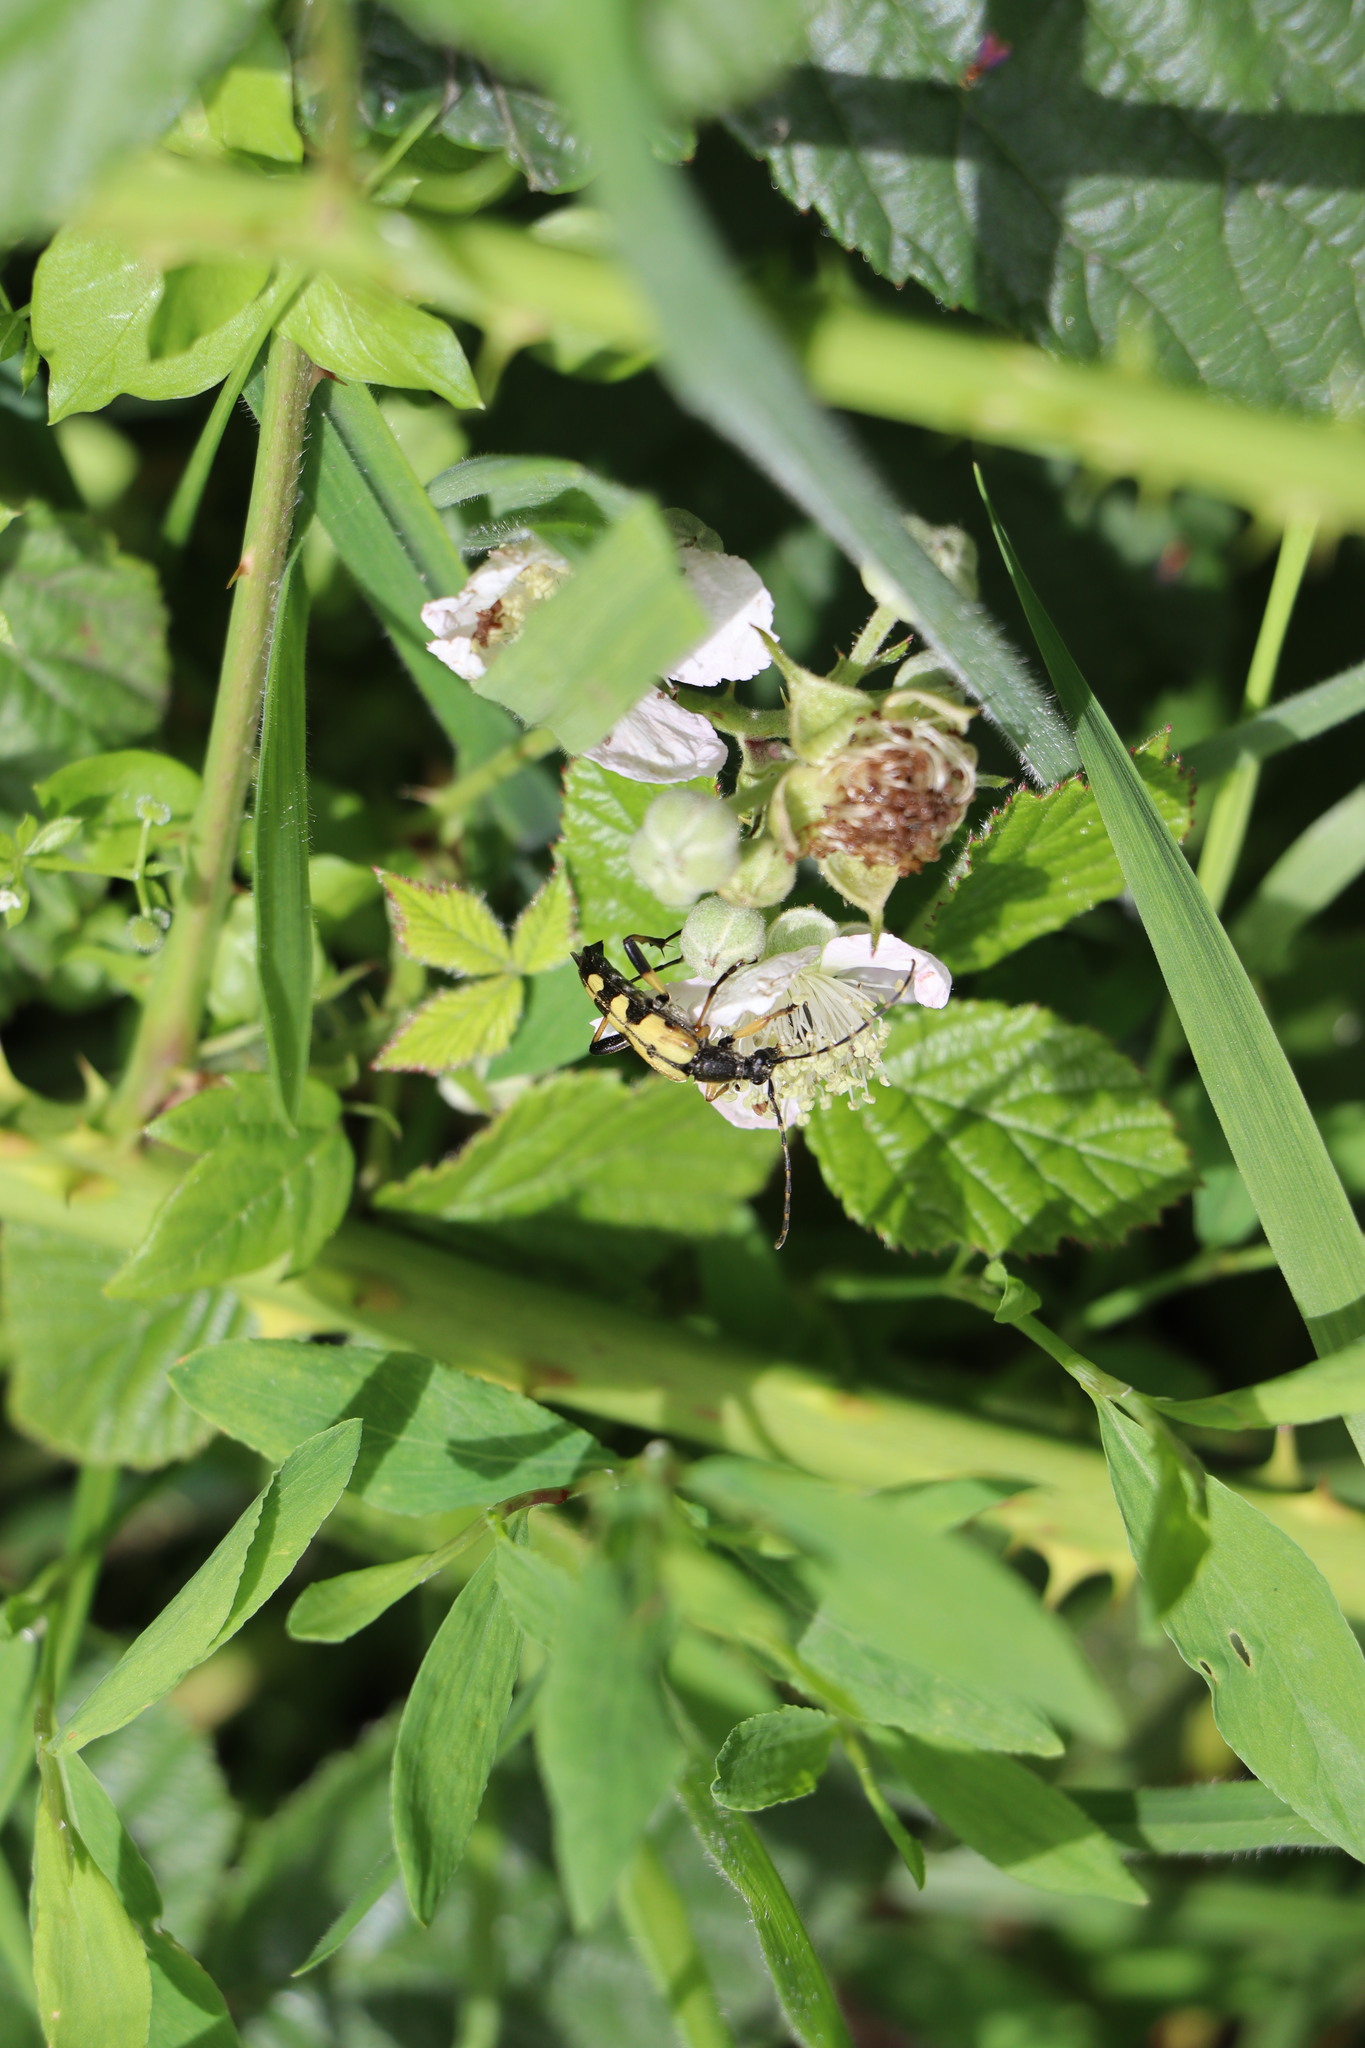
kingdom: Animalia
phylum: Arthropoda
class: Insecta
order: Coleoptera
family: Cerambycidae
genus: Rutpela
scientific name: Rutpela maculata
